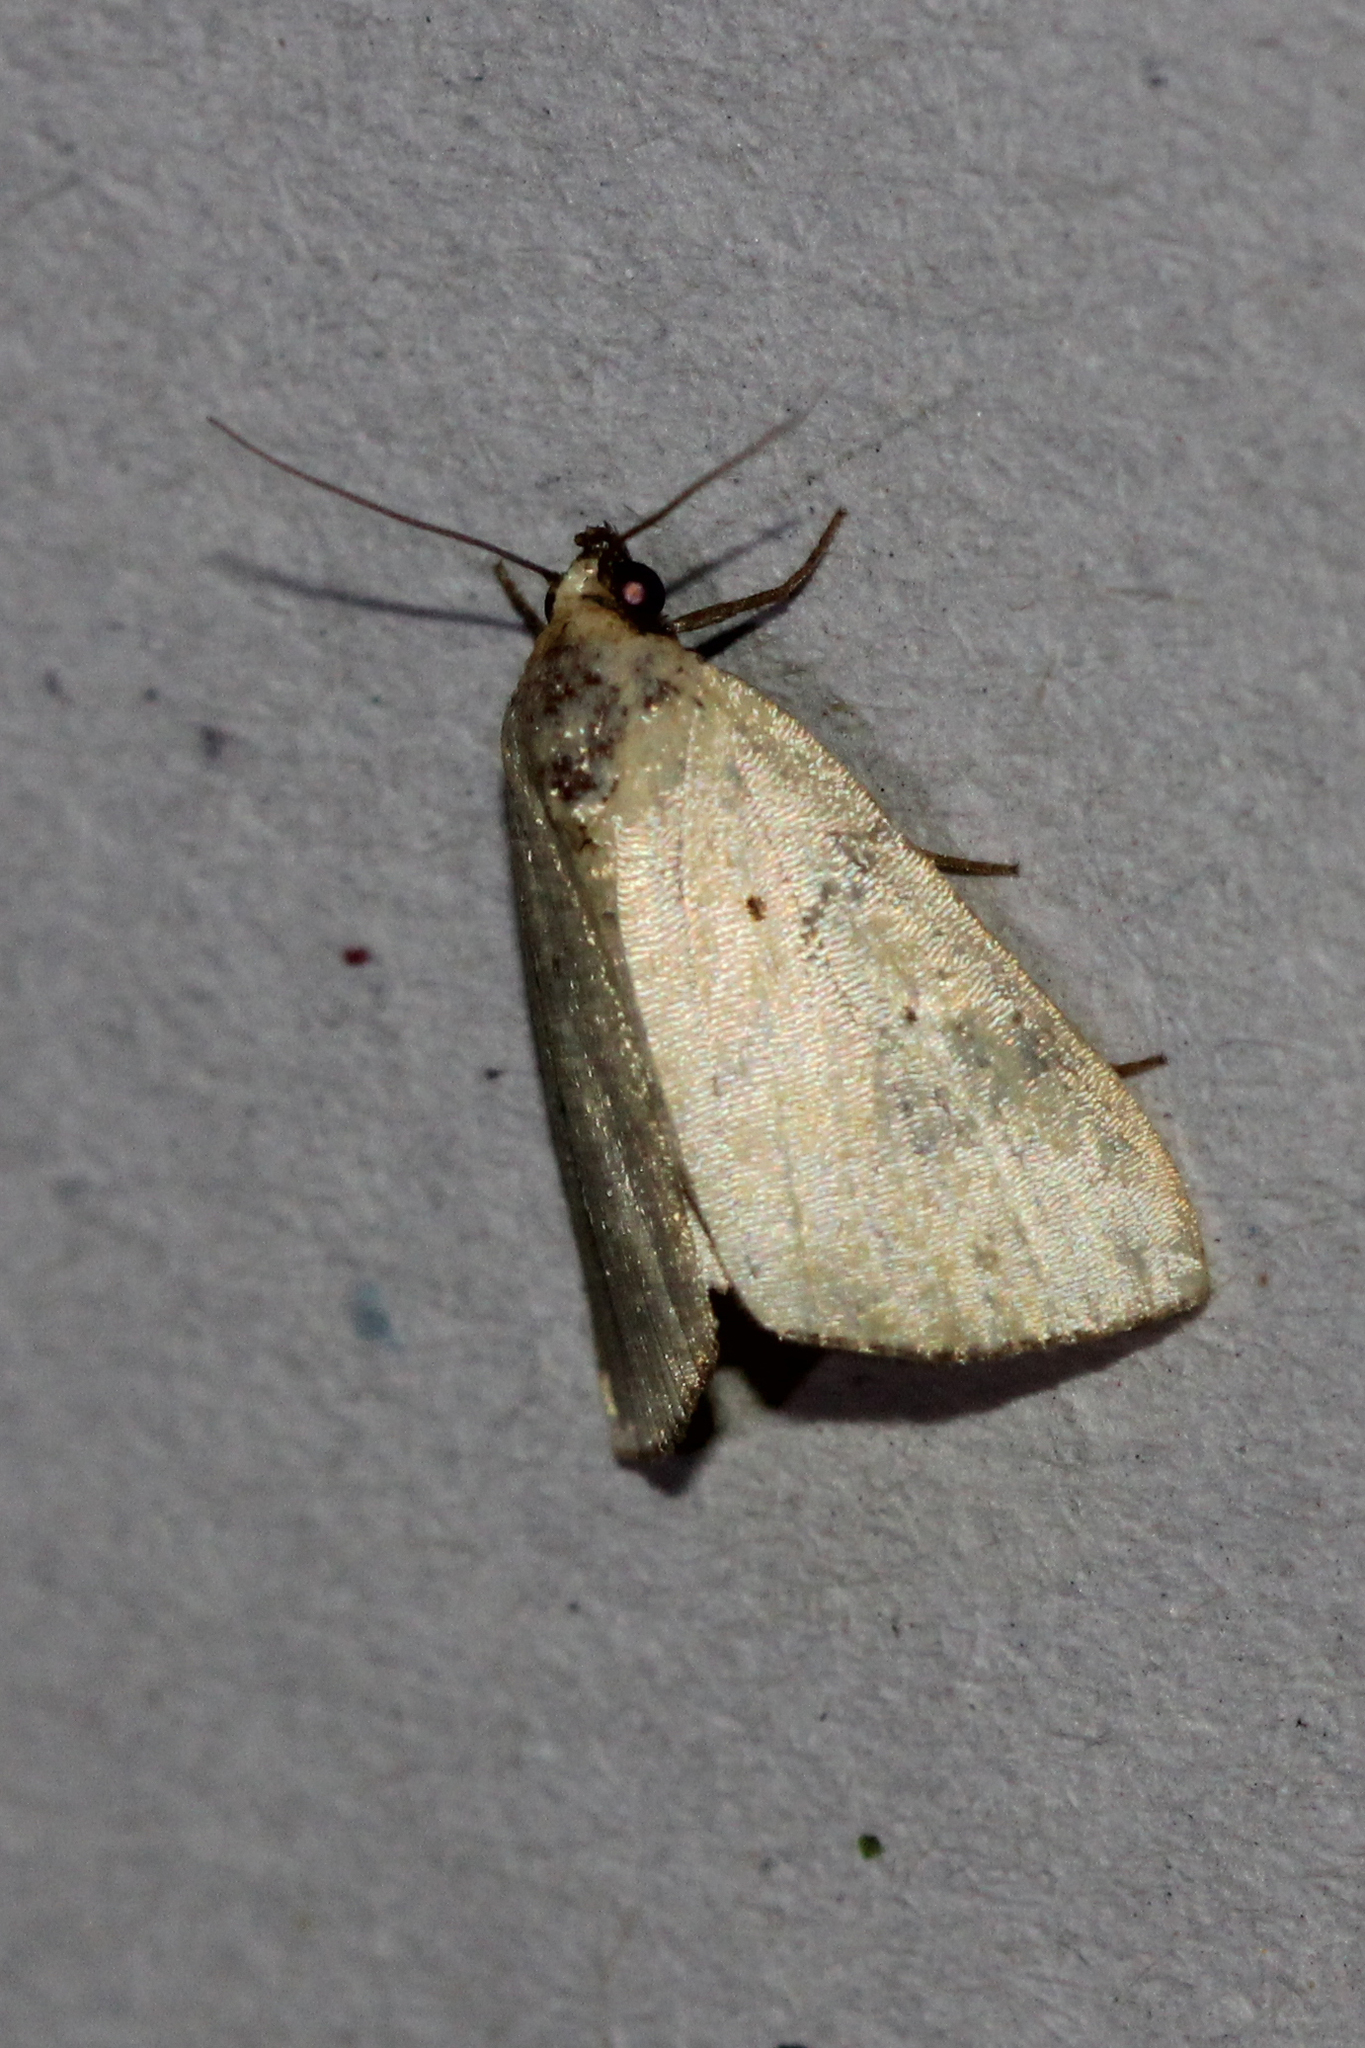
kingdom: Animalia
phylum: Arthropoda
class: Insecta
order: Lepidoptera
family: Noctuidae
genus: Marimatha
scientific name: Marimatha nigrofimbria
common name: Black-bordered lemon moth
